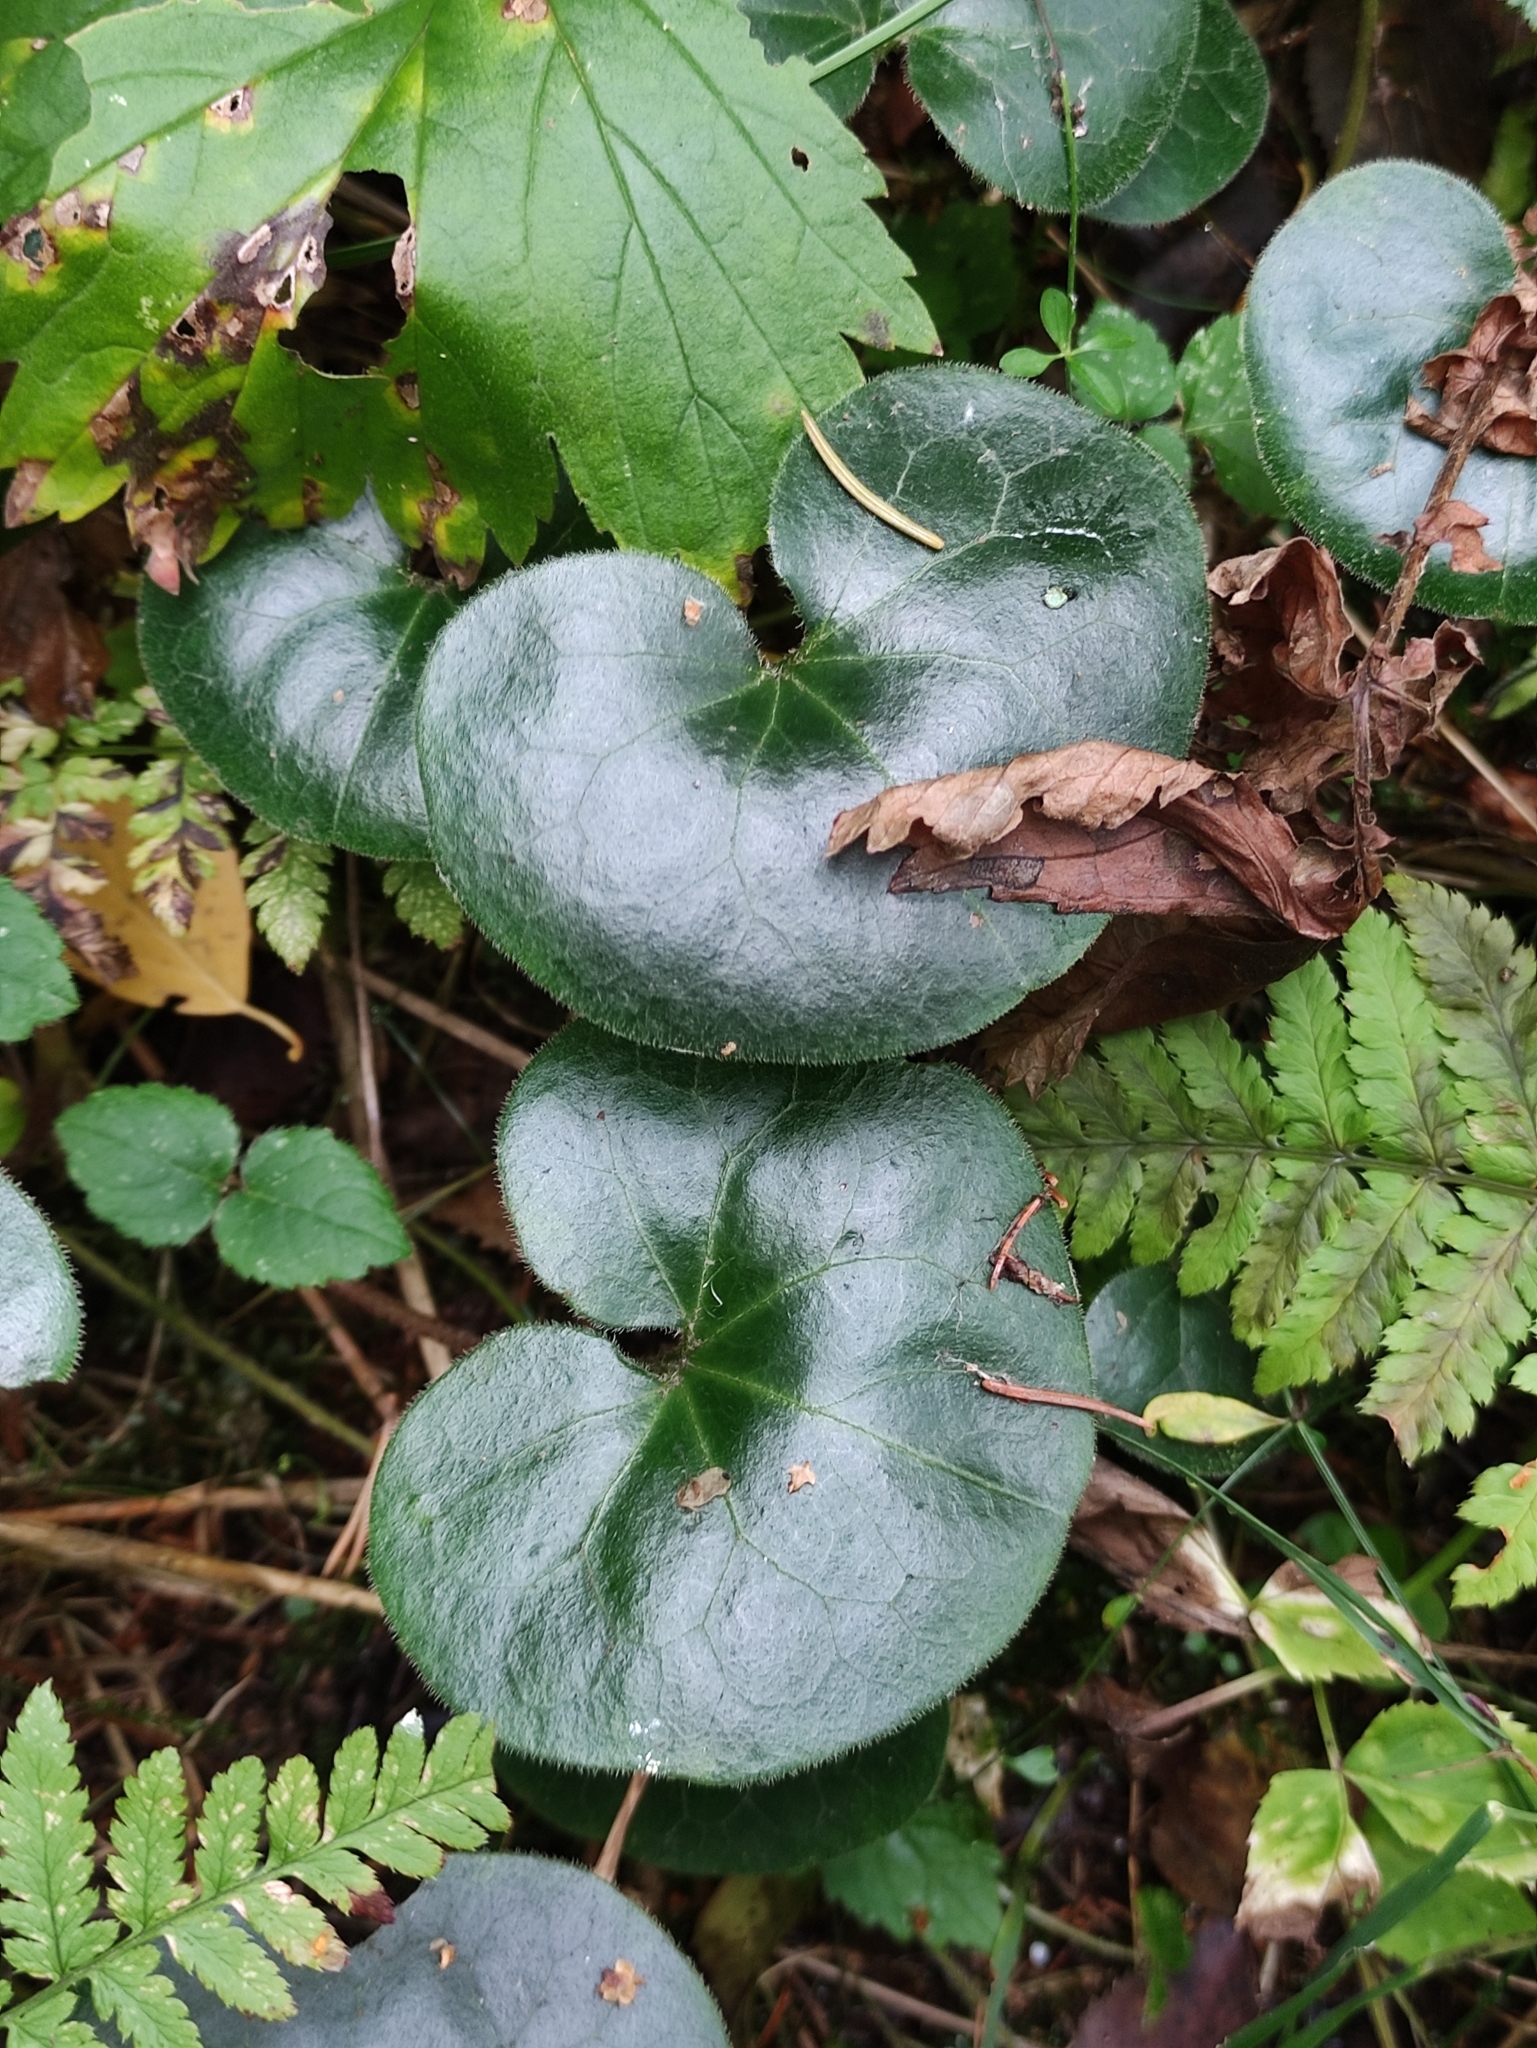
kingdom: Plantae
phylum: Tracheophyta
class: Magnoliopsida
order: Piperales
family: Aristolochiaceae
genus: Asarum
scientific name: Asarum europaeum
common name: Asarabacca
